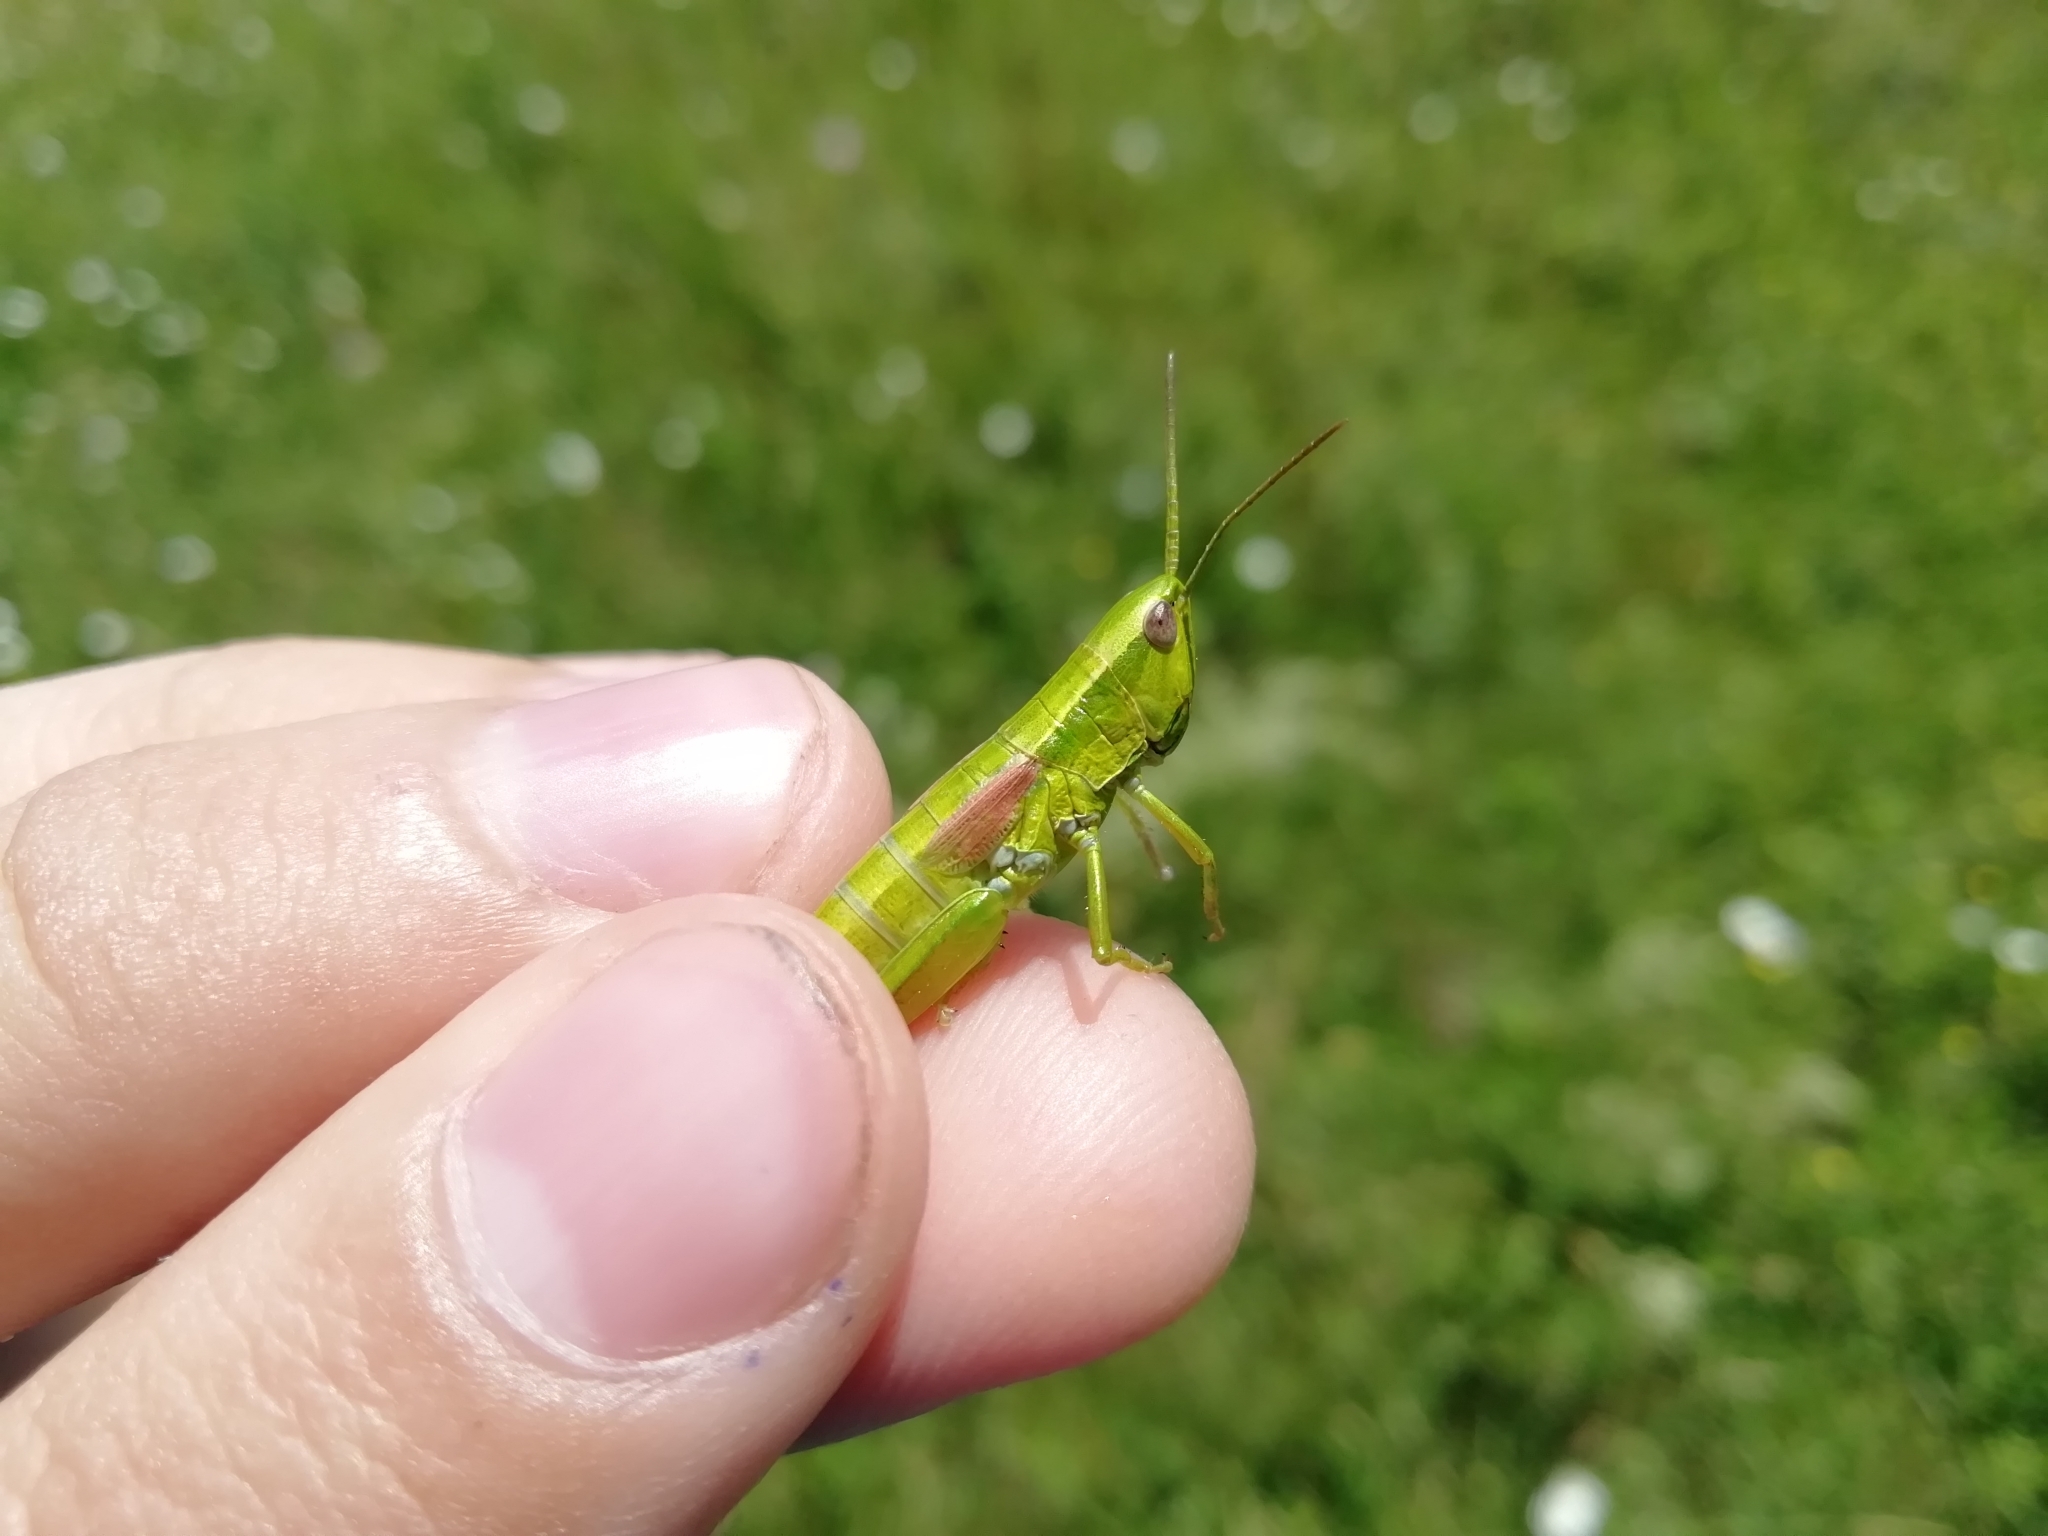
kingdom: Animalia
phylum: Arthropoda
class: Insecta
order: Orthoptera
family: Acrididae
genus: Euthystira
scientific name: Euthystira brachyptera
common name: Small gold grasshopper
